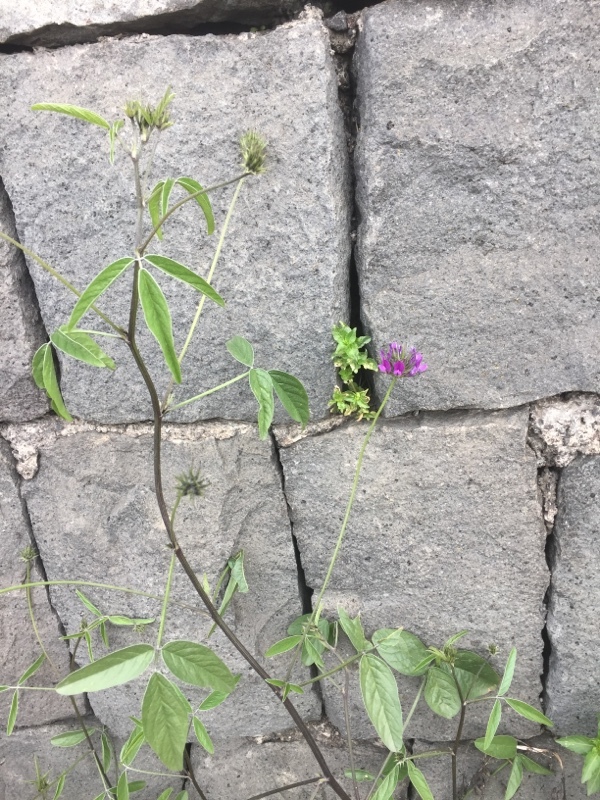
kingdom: Plantae
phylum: Tracheophyta
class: Magnoliopsida
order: Fabales
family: Fabaceae
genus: Bituminaria
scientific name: Bituminaria bituminosa
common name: Arabian pea
